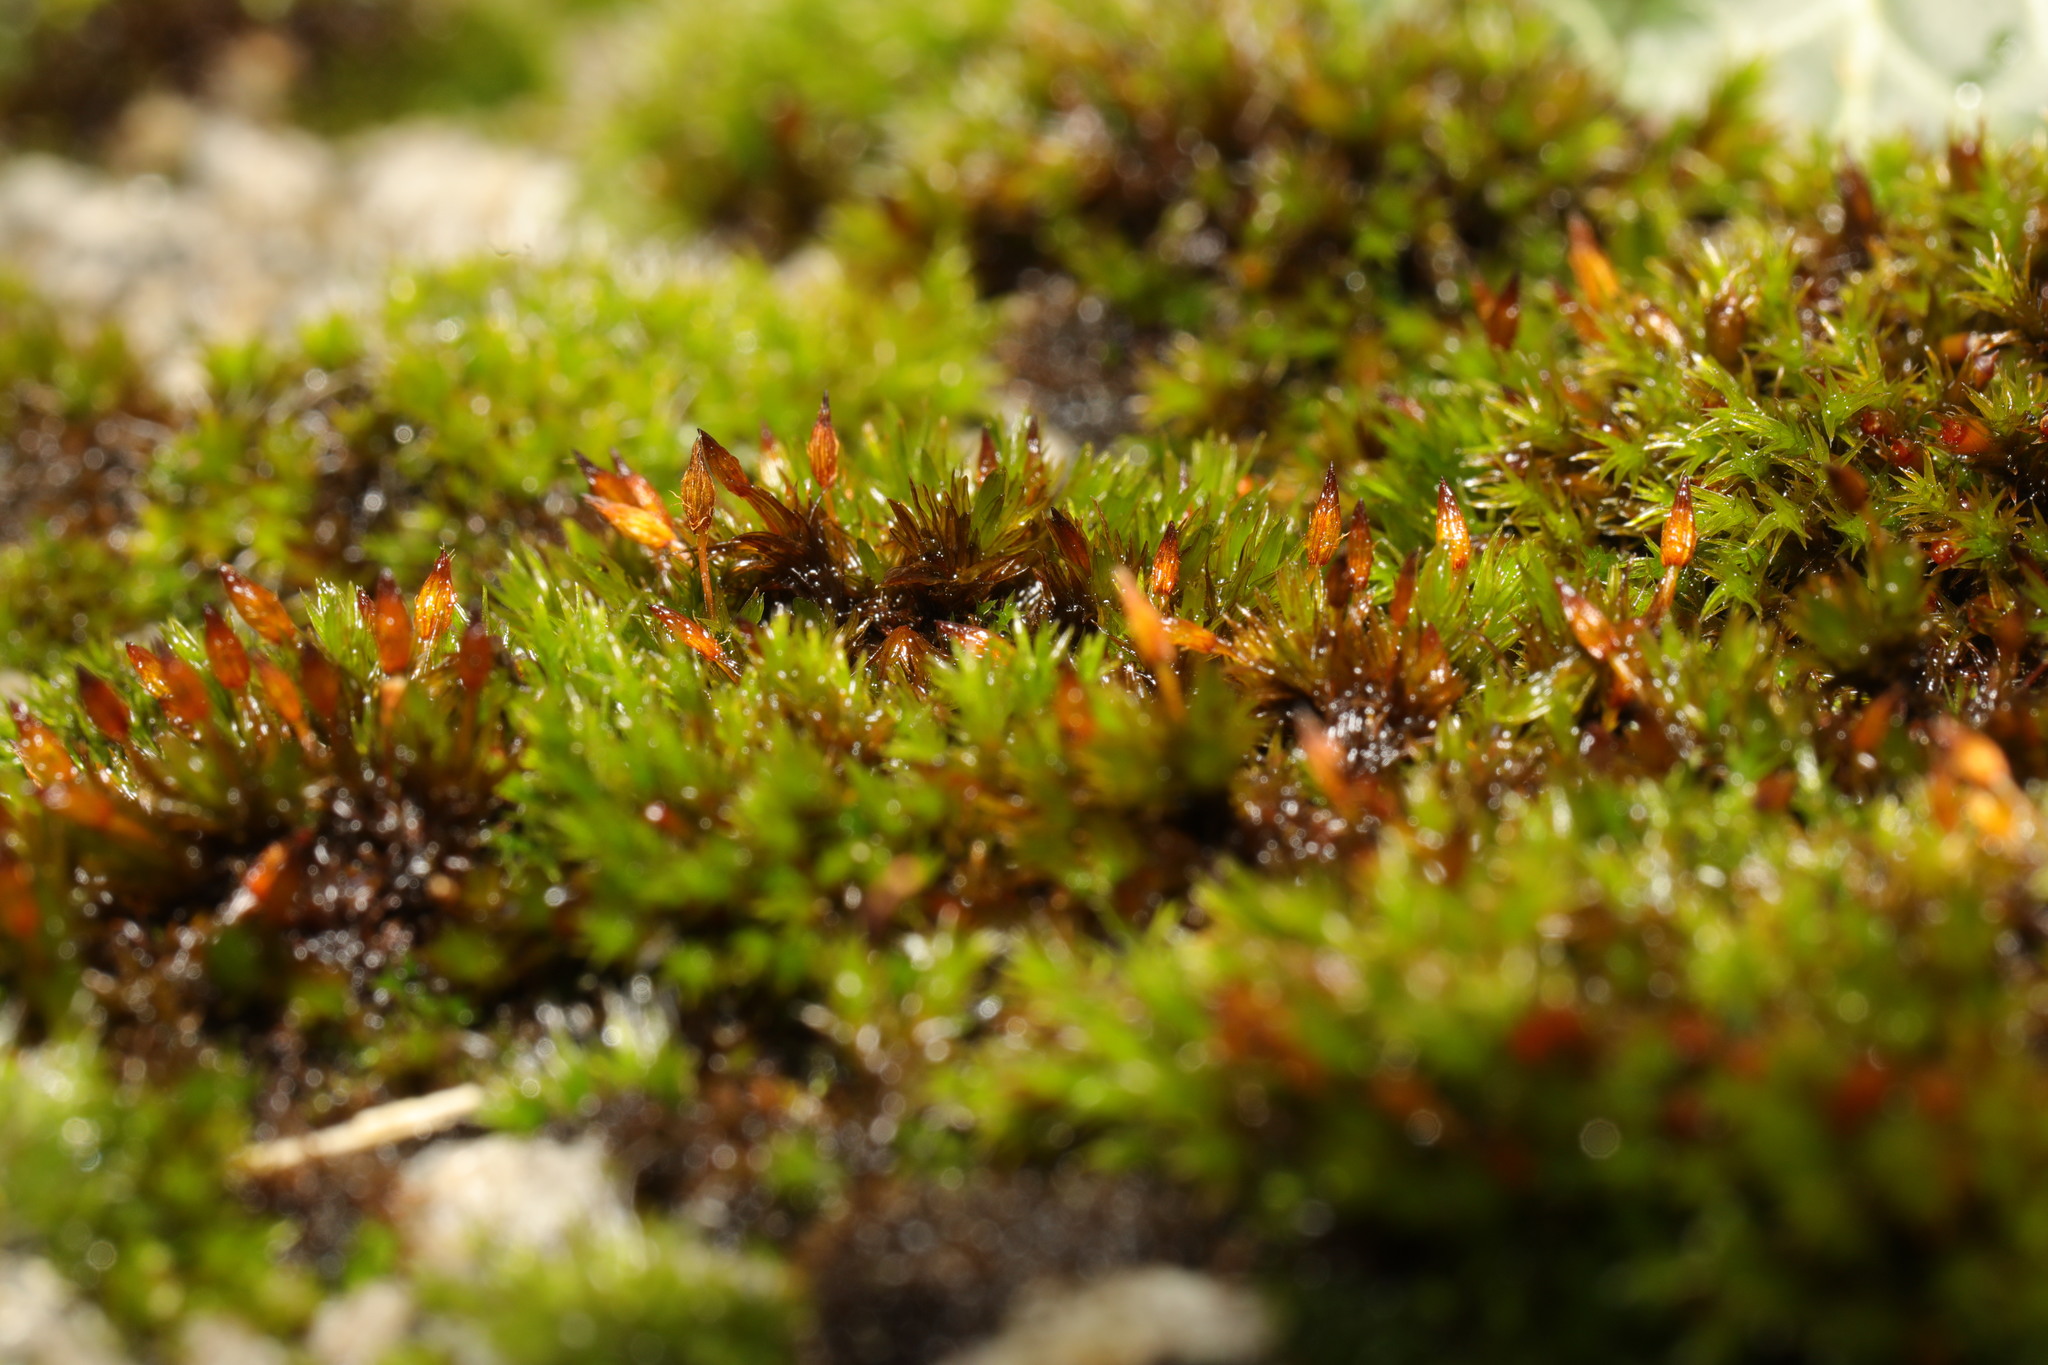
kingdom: Plantae
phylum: Bryophyta
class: Bryopsida
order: Orthotrichales
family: Orthotrichaceae
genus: Orthotrichum
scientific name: Orthotrichum anomalum
